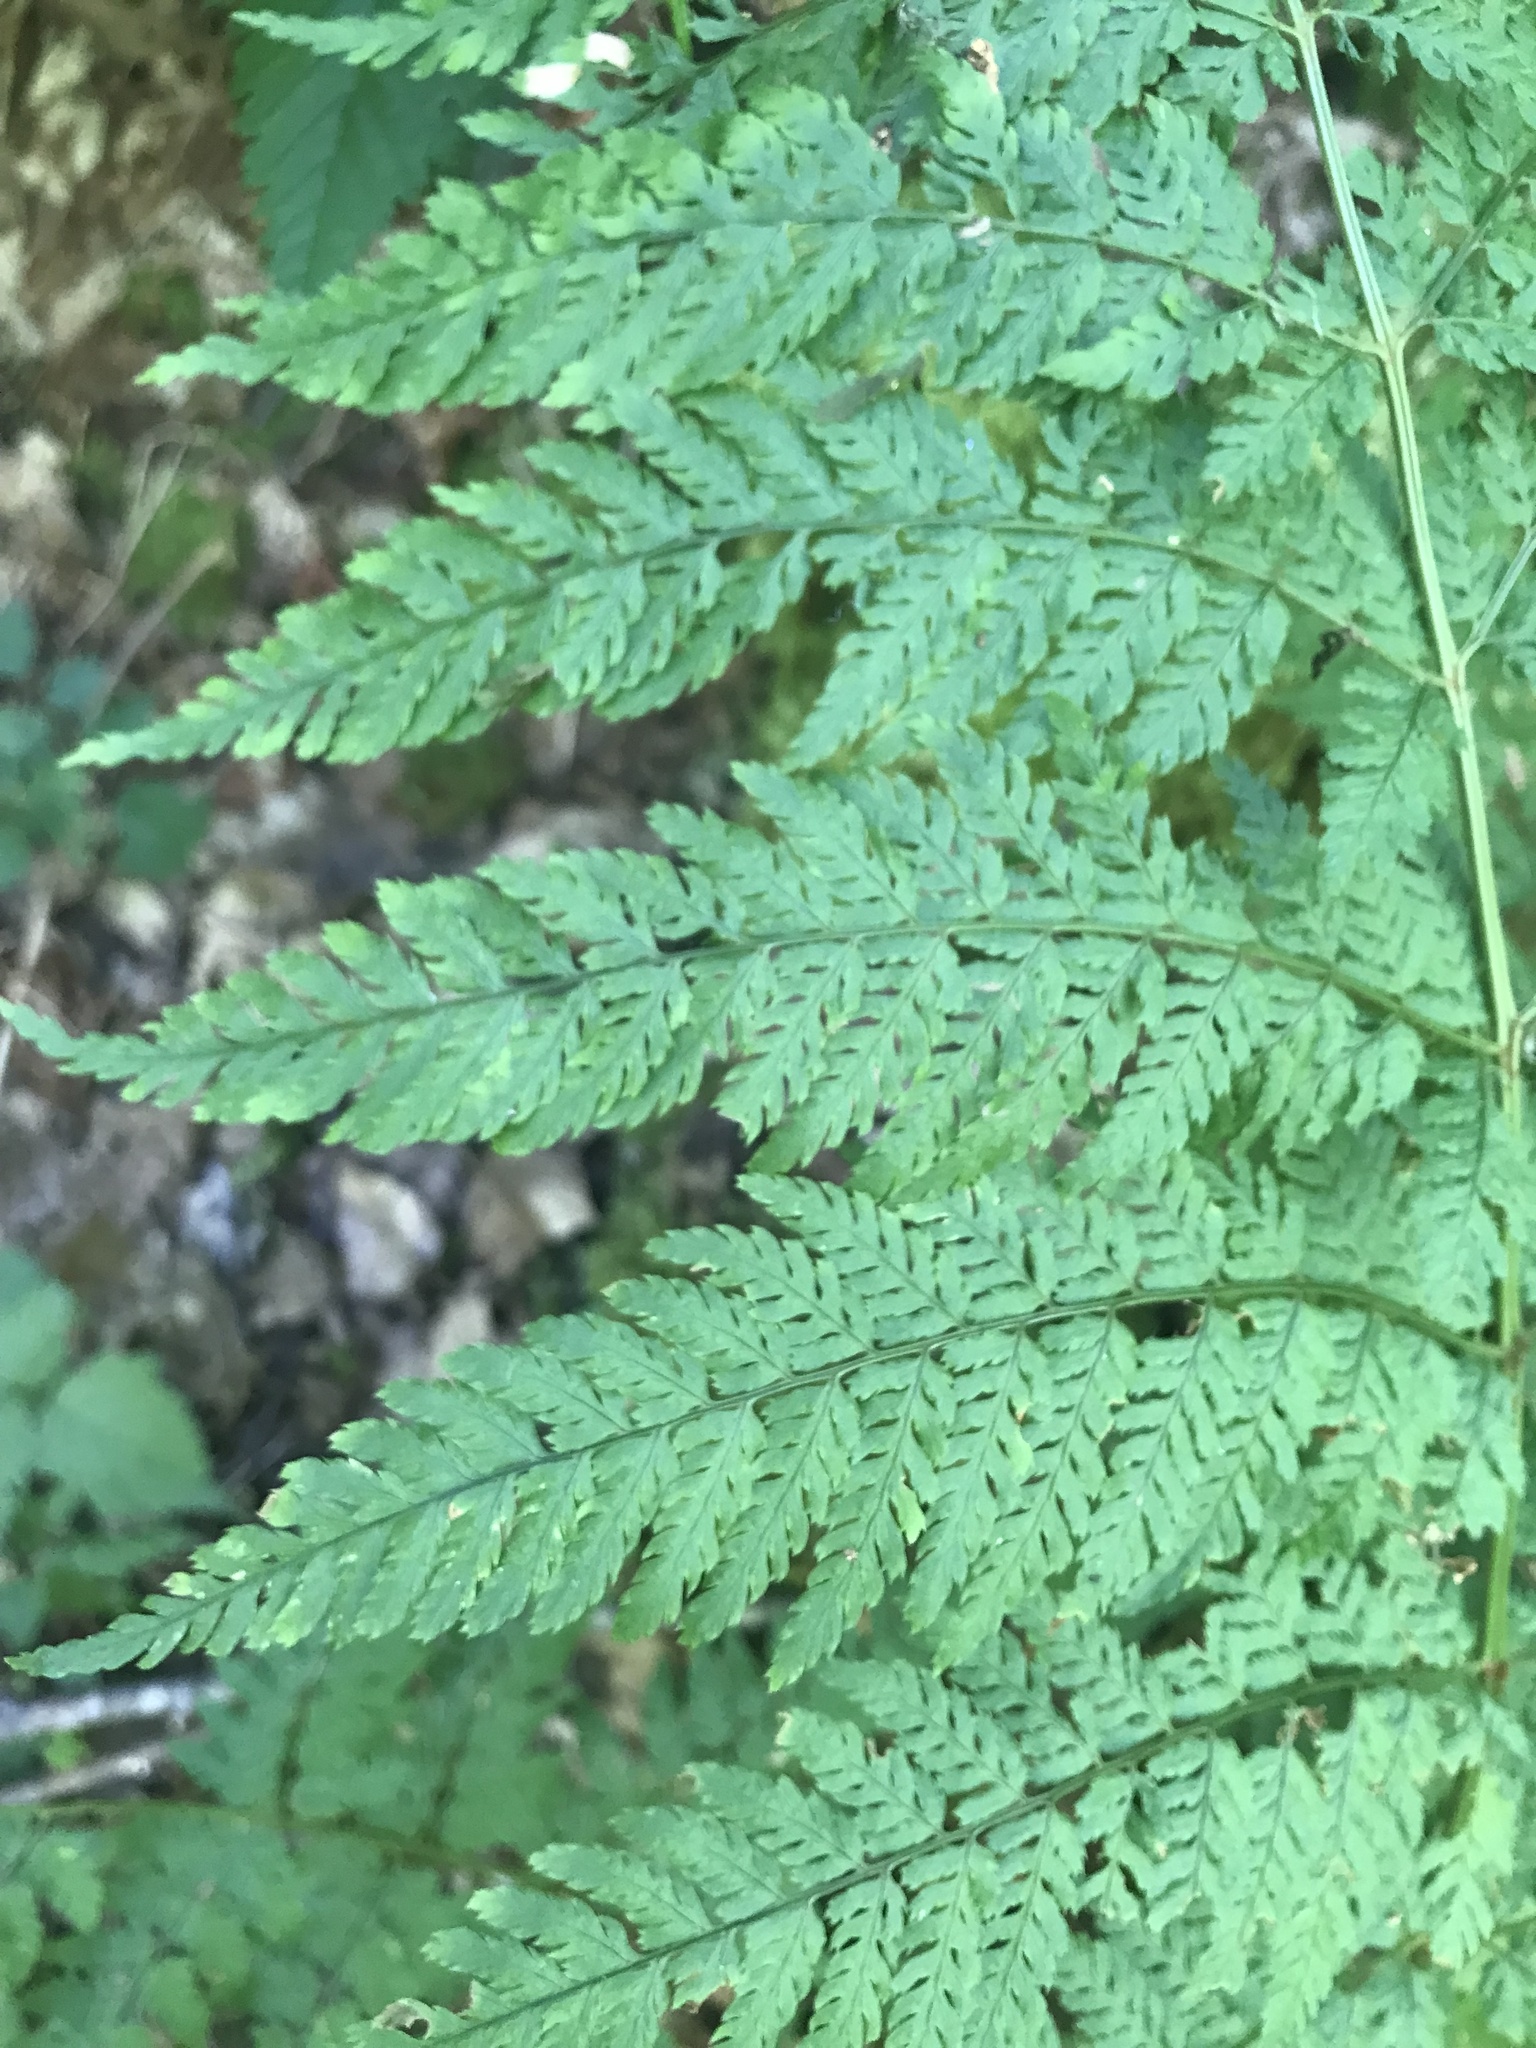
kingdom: Plantae
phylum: Tracheophyta
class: Polypodiopsida
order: Polypodiales
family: Dryopteridaceae
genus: Dryopteris
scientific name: Dryopteris expansa
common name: Northern buckler fern
